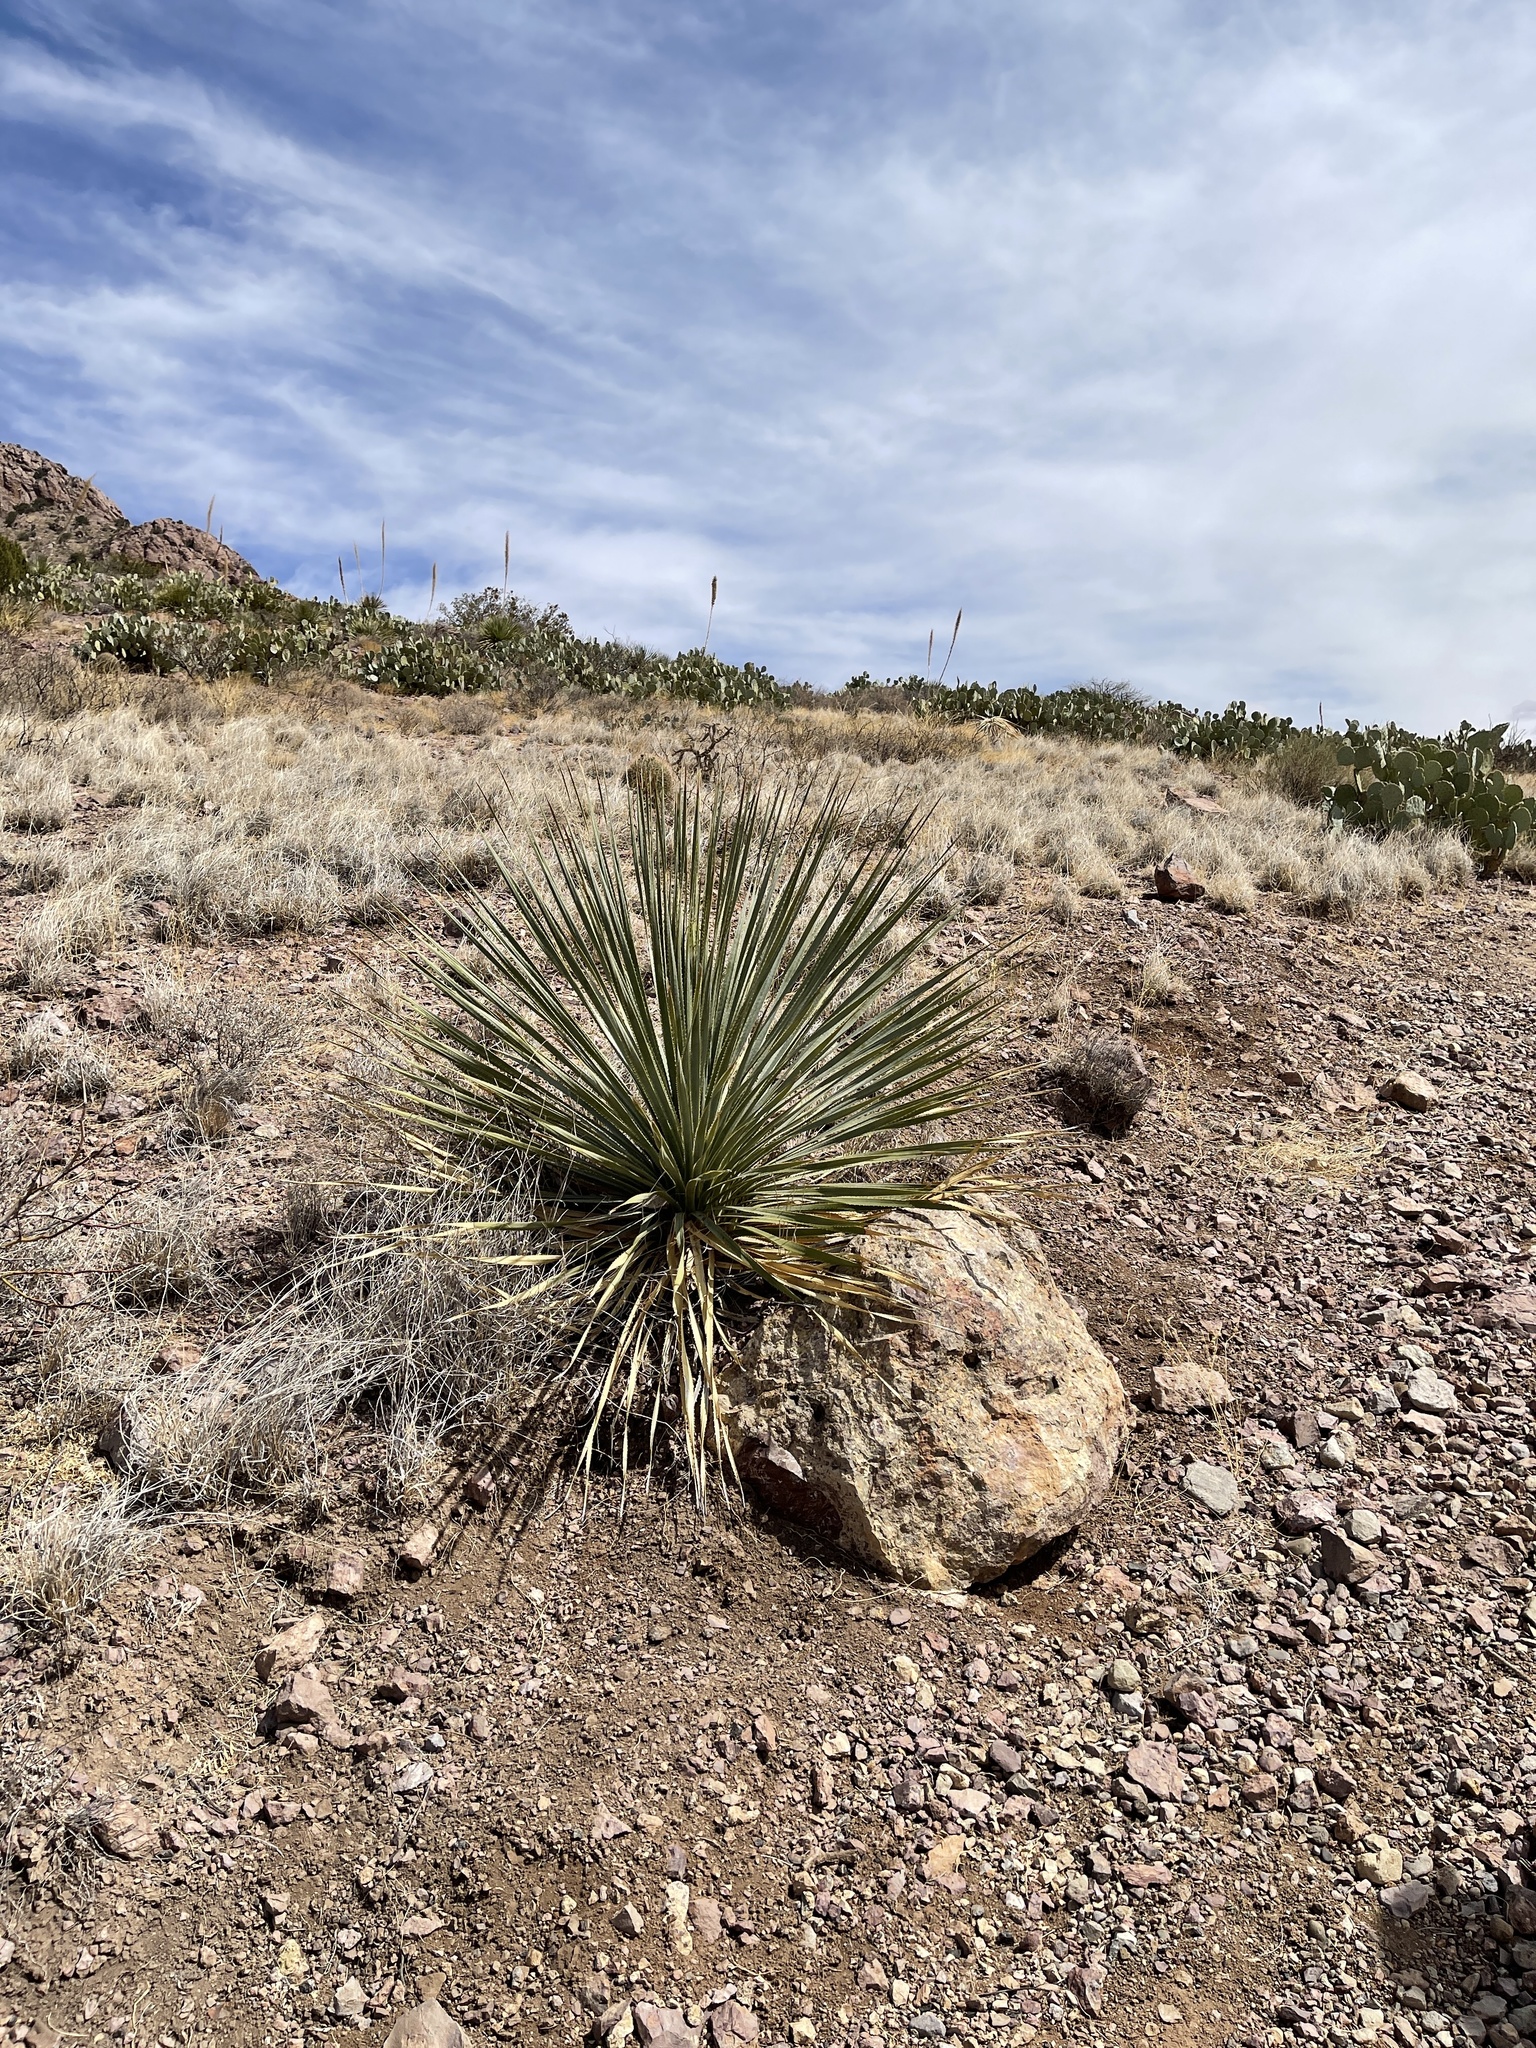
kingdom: Plantae
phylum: Tracheophyta
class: Liliopsida
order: Asparagales
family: Asparagaceae
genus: Dasylirion
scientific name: Dasylirion wheeleri
